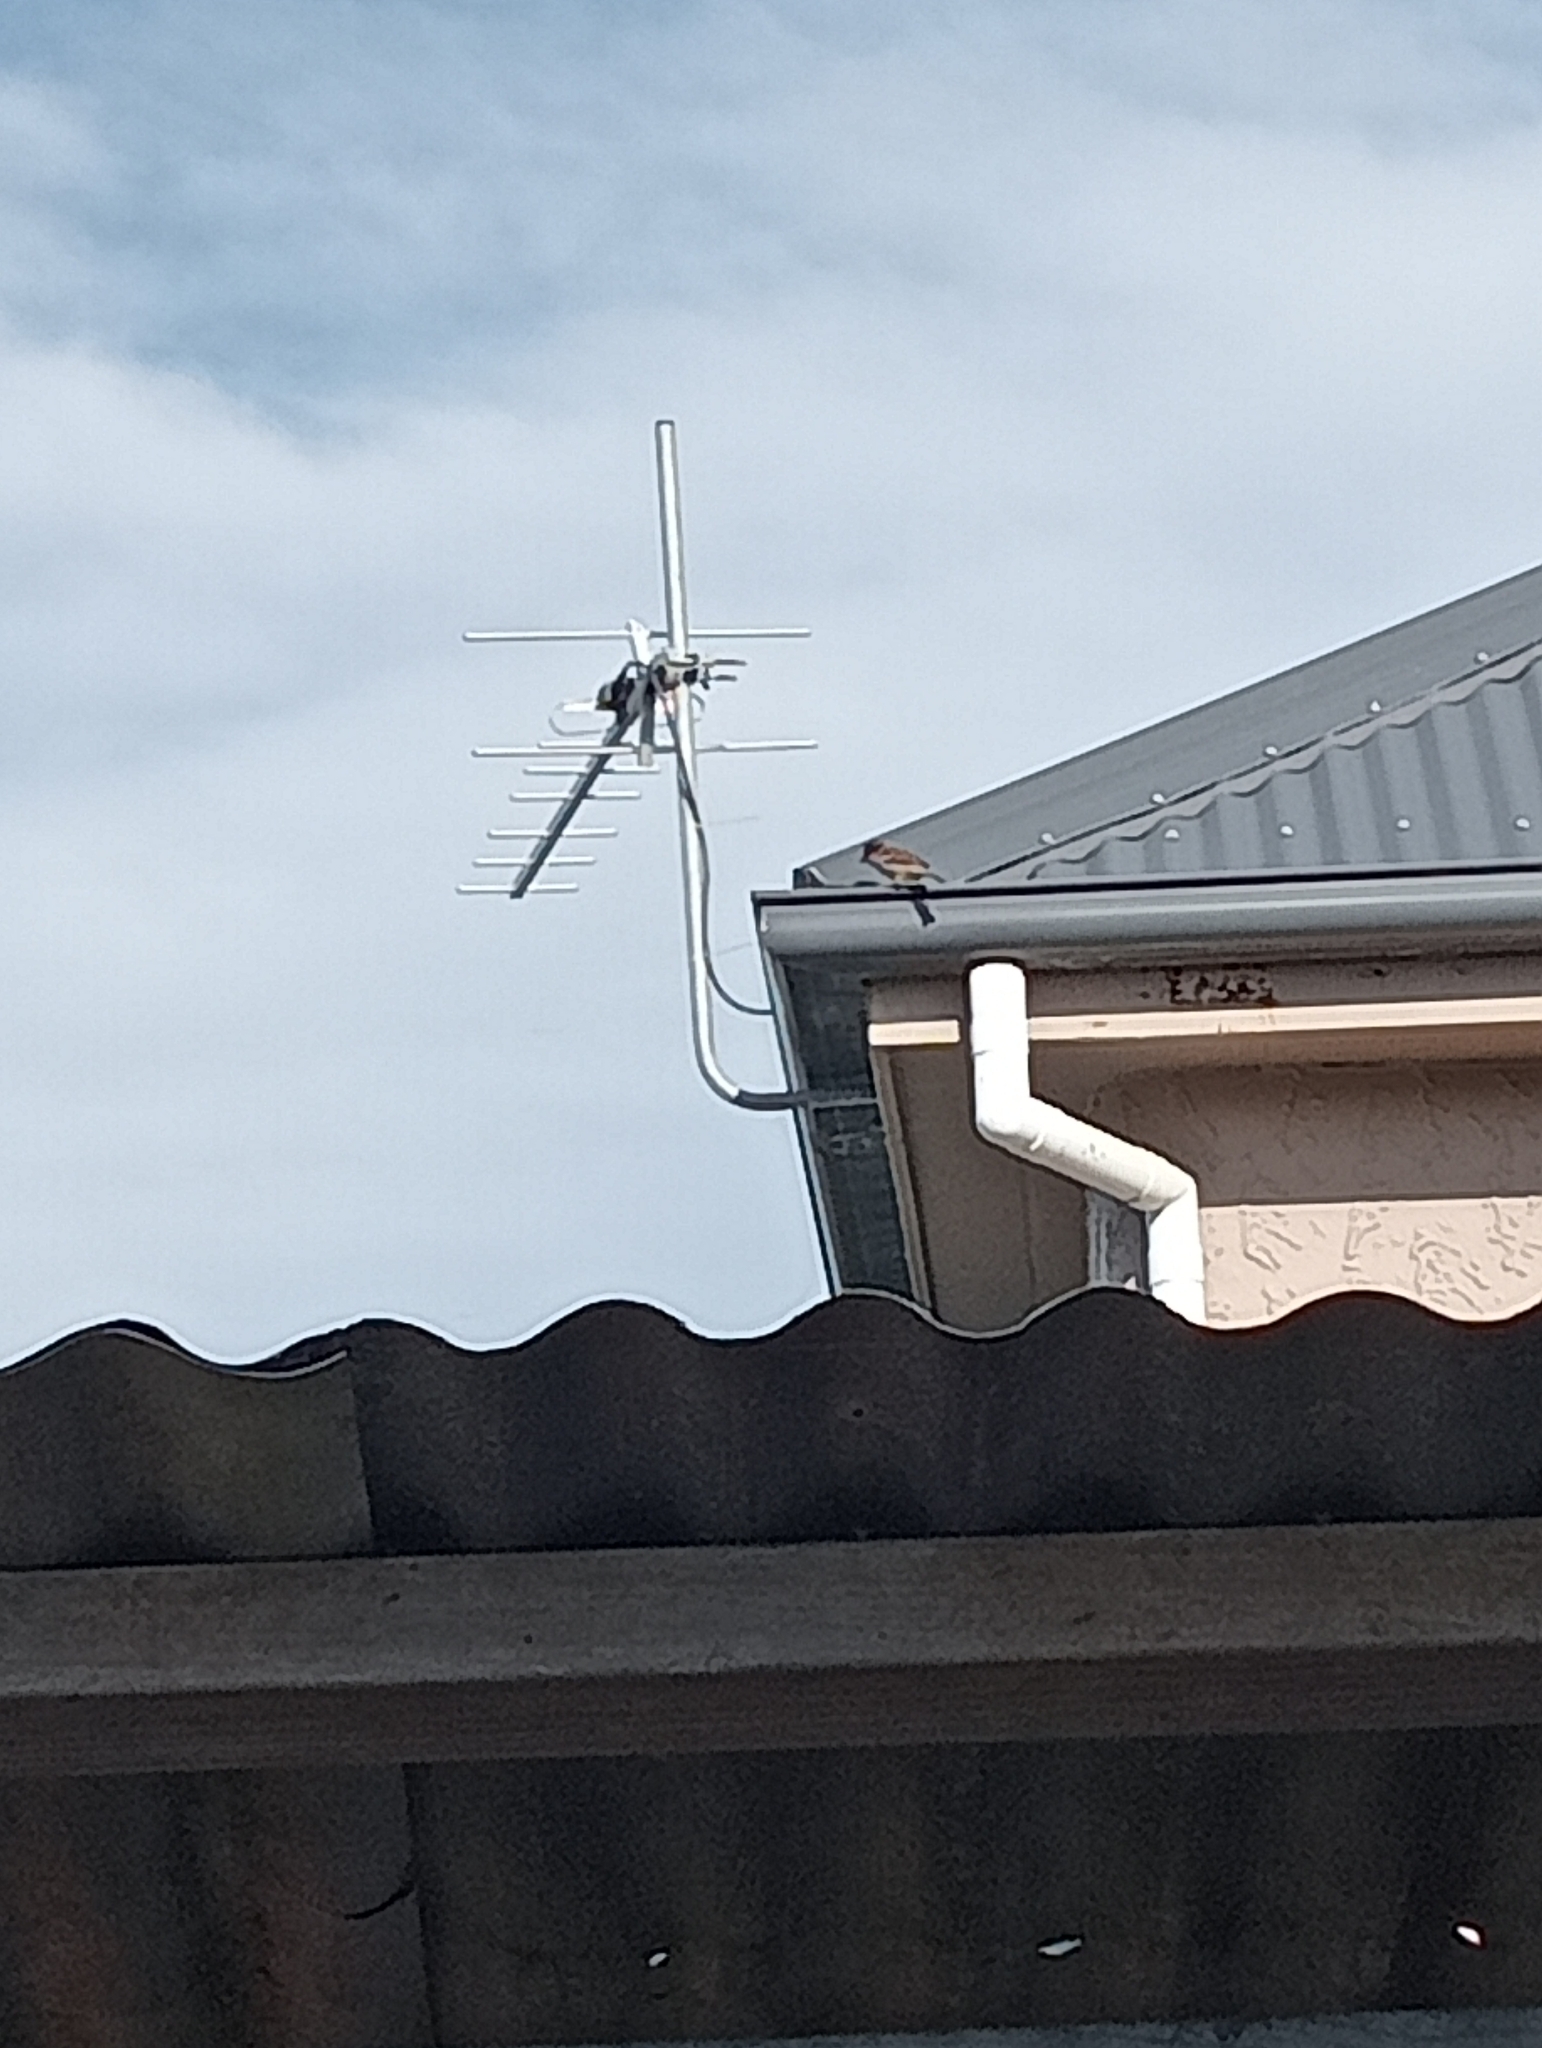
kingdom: Animalia
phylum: Chordata
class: Aves
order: Passeriformes
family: Passeridae
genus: Passer
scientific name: Passer domesticus
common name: House sparrow
